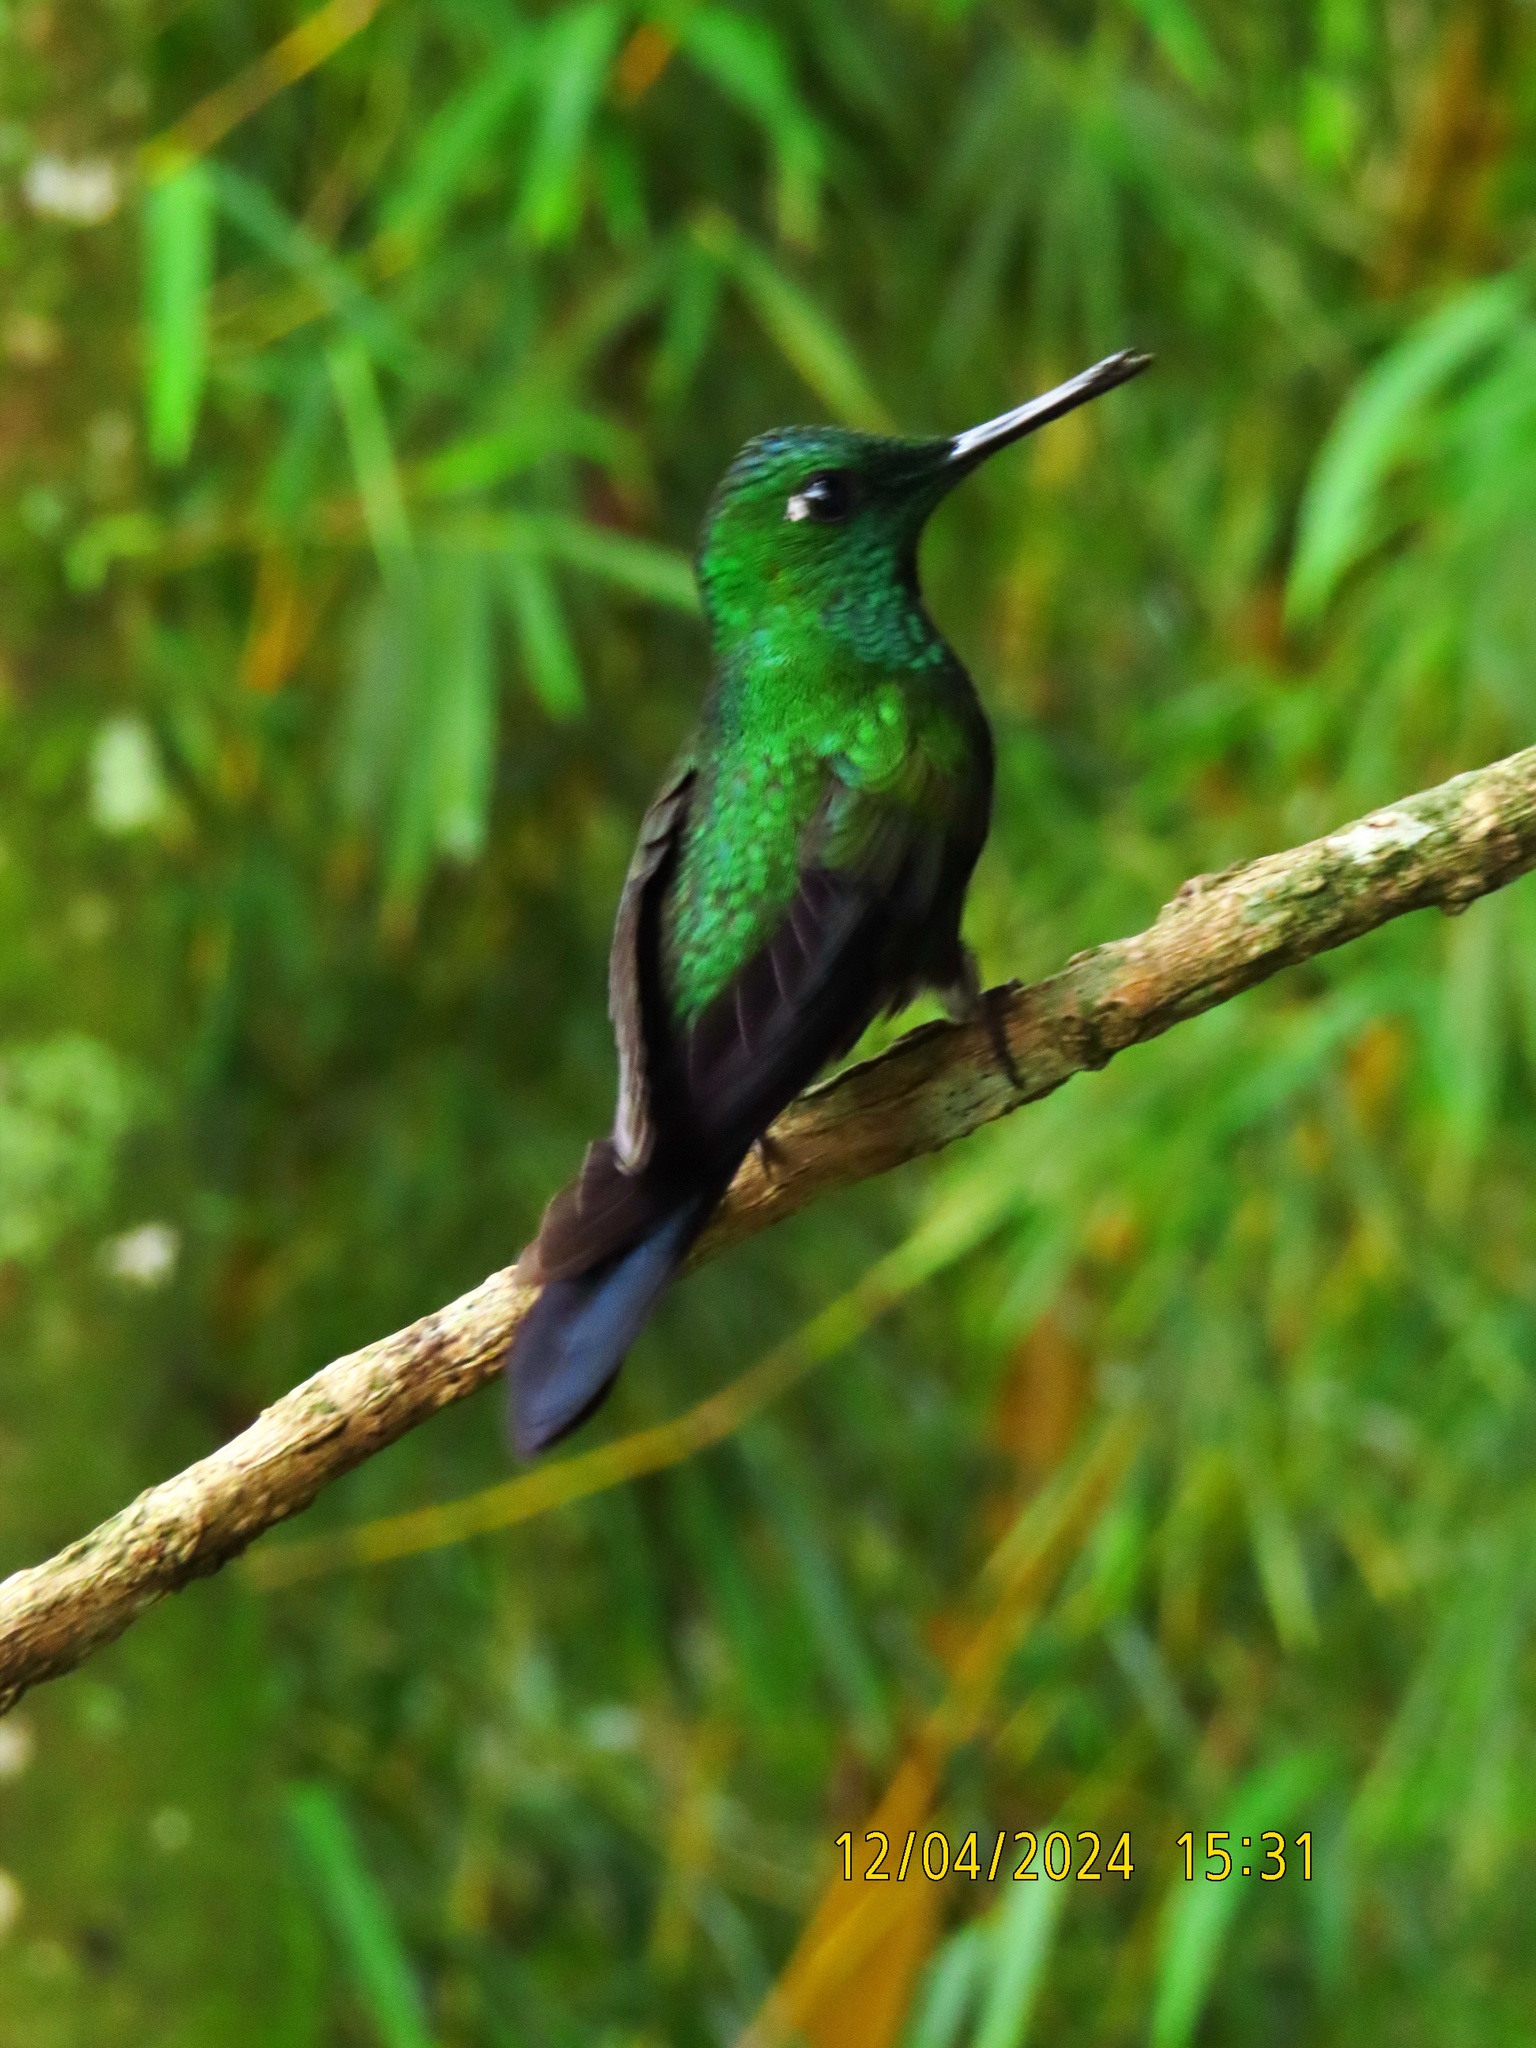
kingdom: Animalia
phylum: Chordata
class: Aves
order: Apodiformes
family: Trochilidae
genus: Heliodoxa
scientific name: Heliodoxa jacula
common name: Green-crowned brilliant
